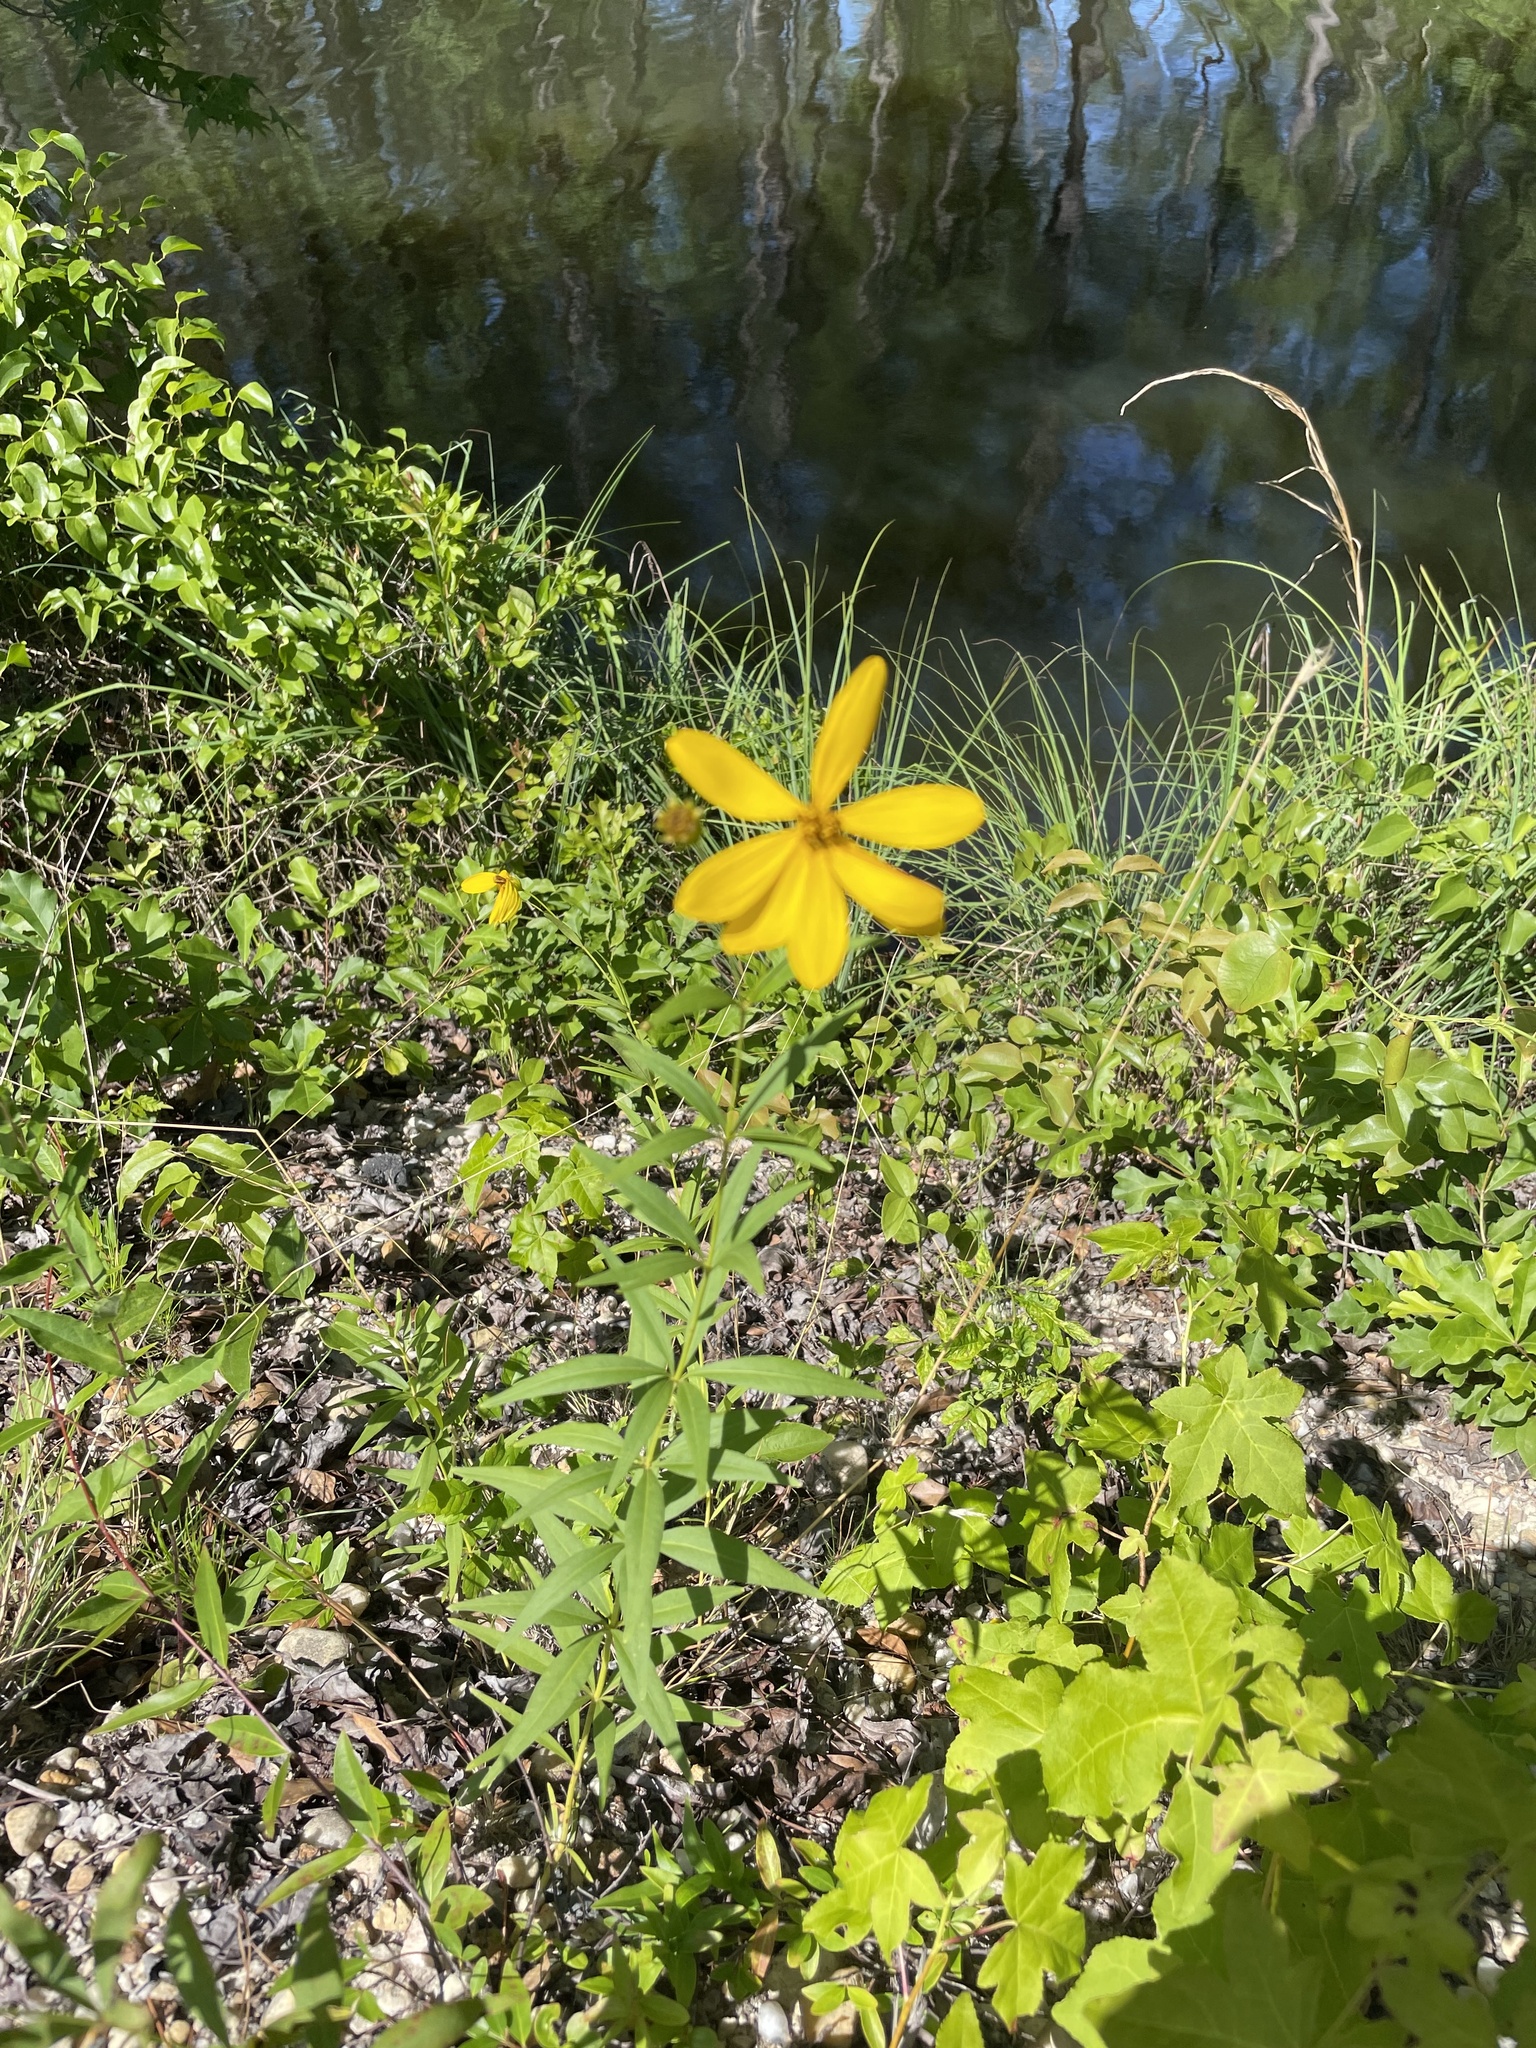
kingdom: Plantae
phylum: Tracheophyta
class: Magnoliopsida
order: Asterales
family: Asteraceae
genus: Coreopsis
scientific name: Coreopsis major
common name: Forest tickseed
